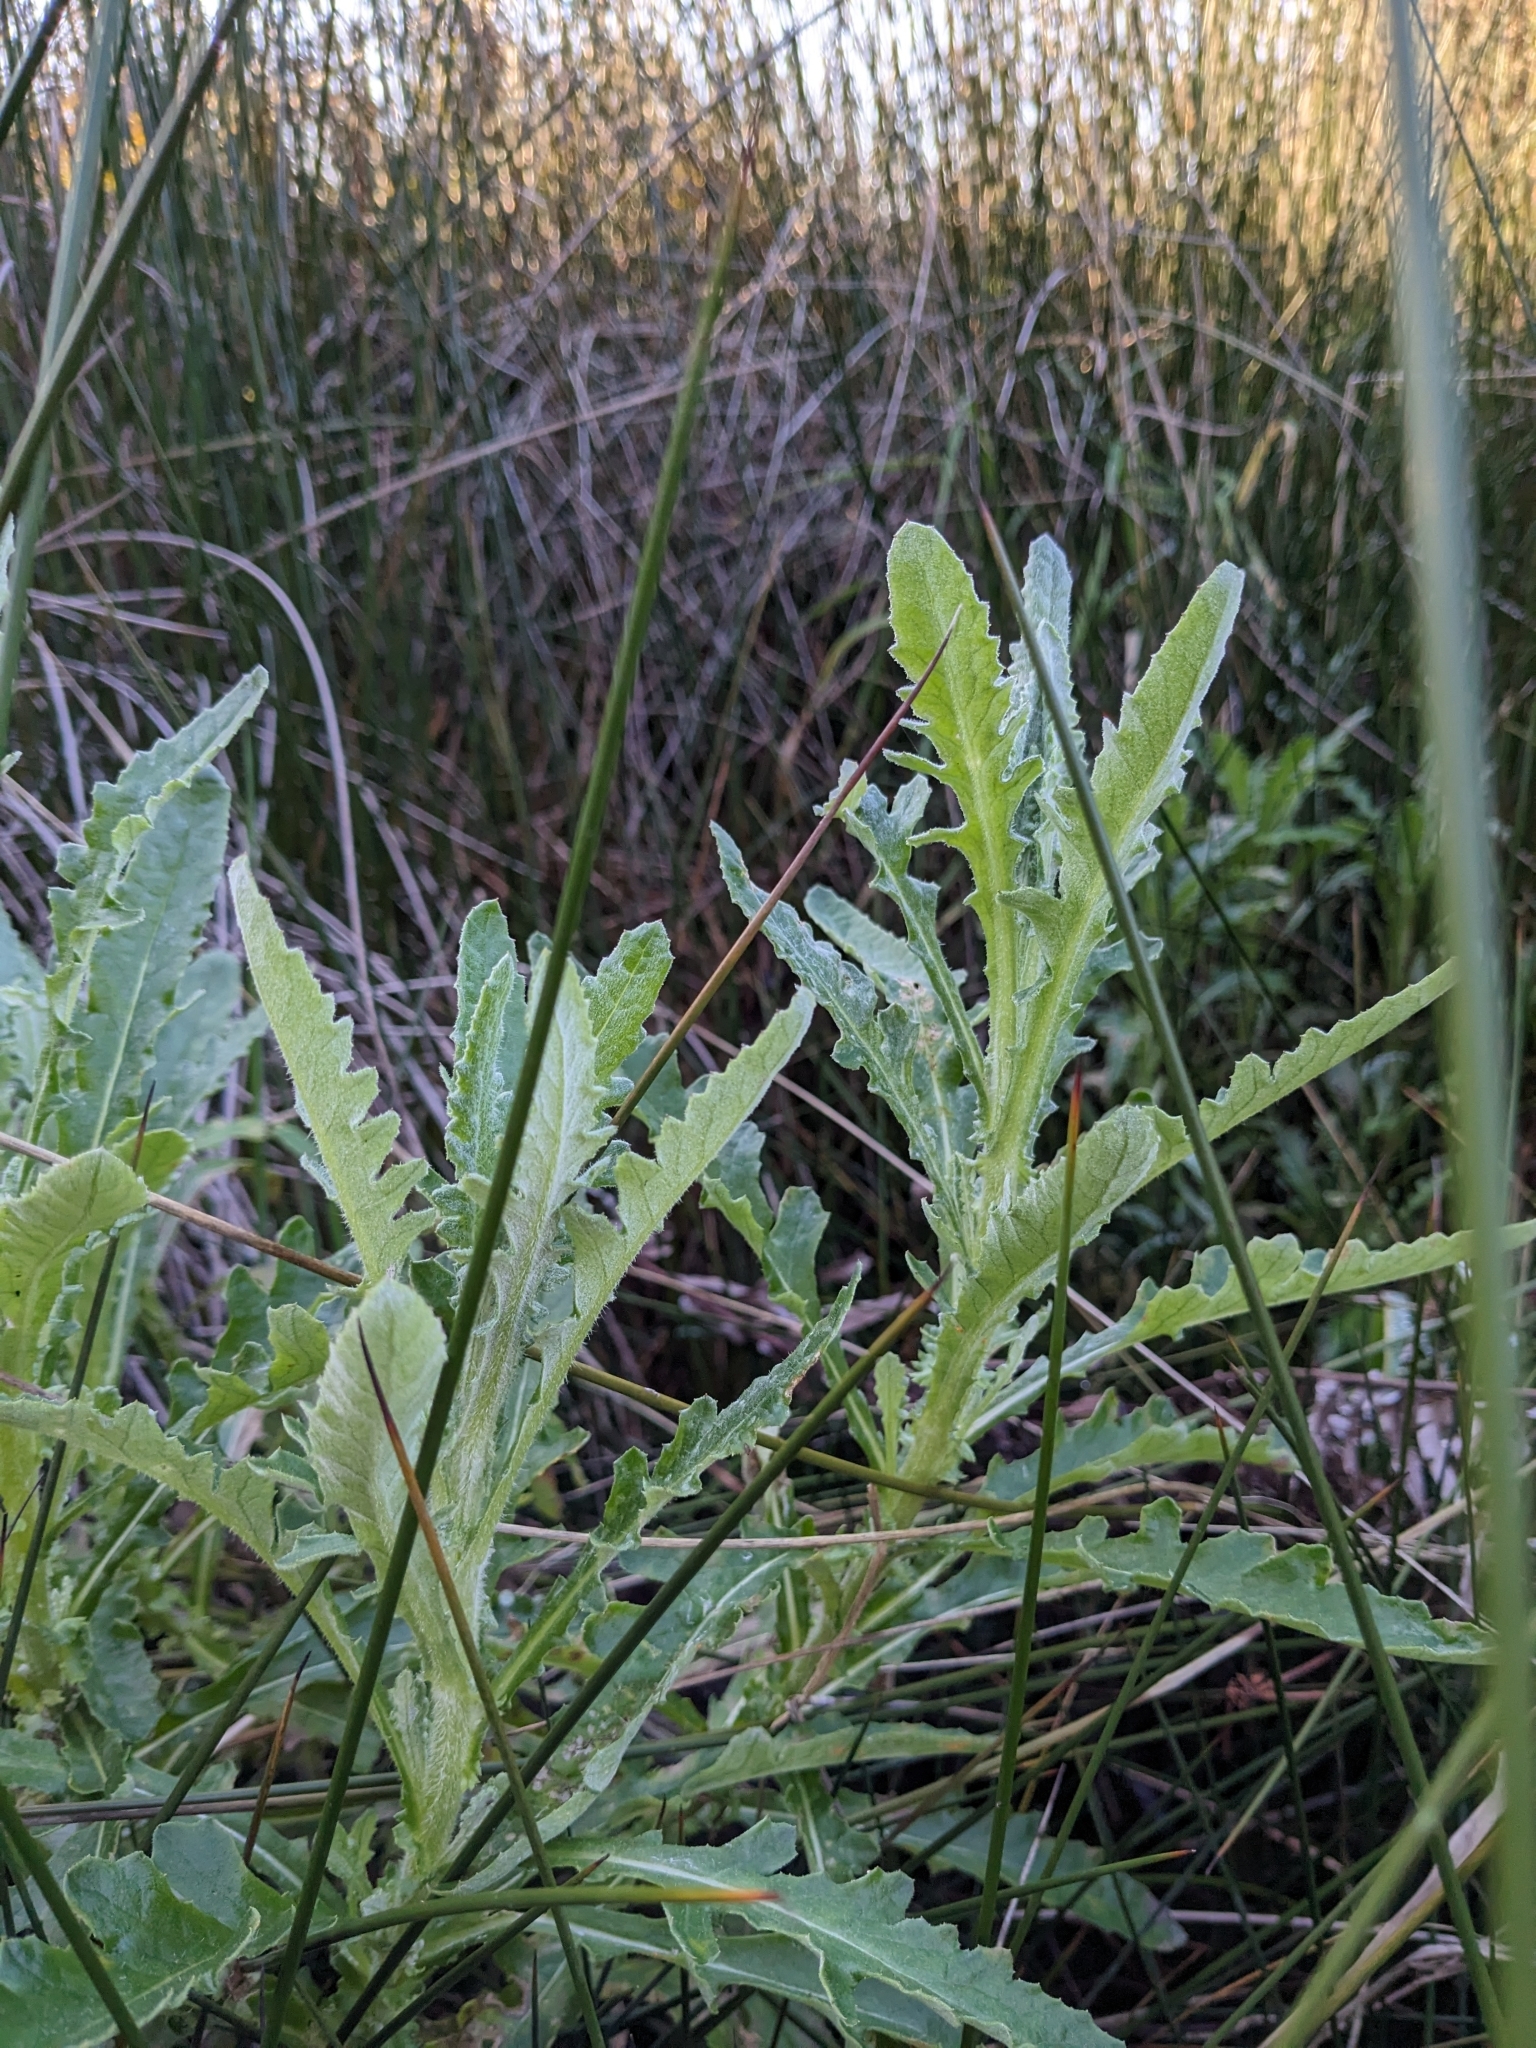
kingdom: Plantae
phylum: Tracheophyta
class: Magnoliopsida
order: Asterales
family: Asteraceae
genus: Senecio
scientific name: Senecio glomeratus
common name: Cutleaf burnweed
